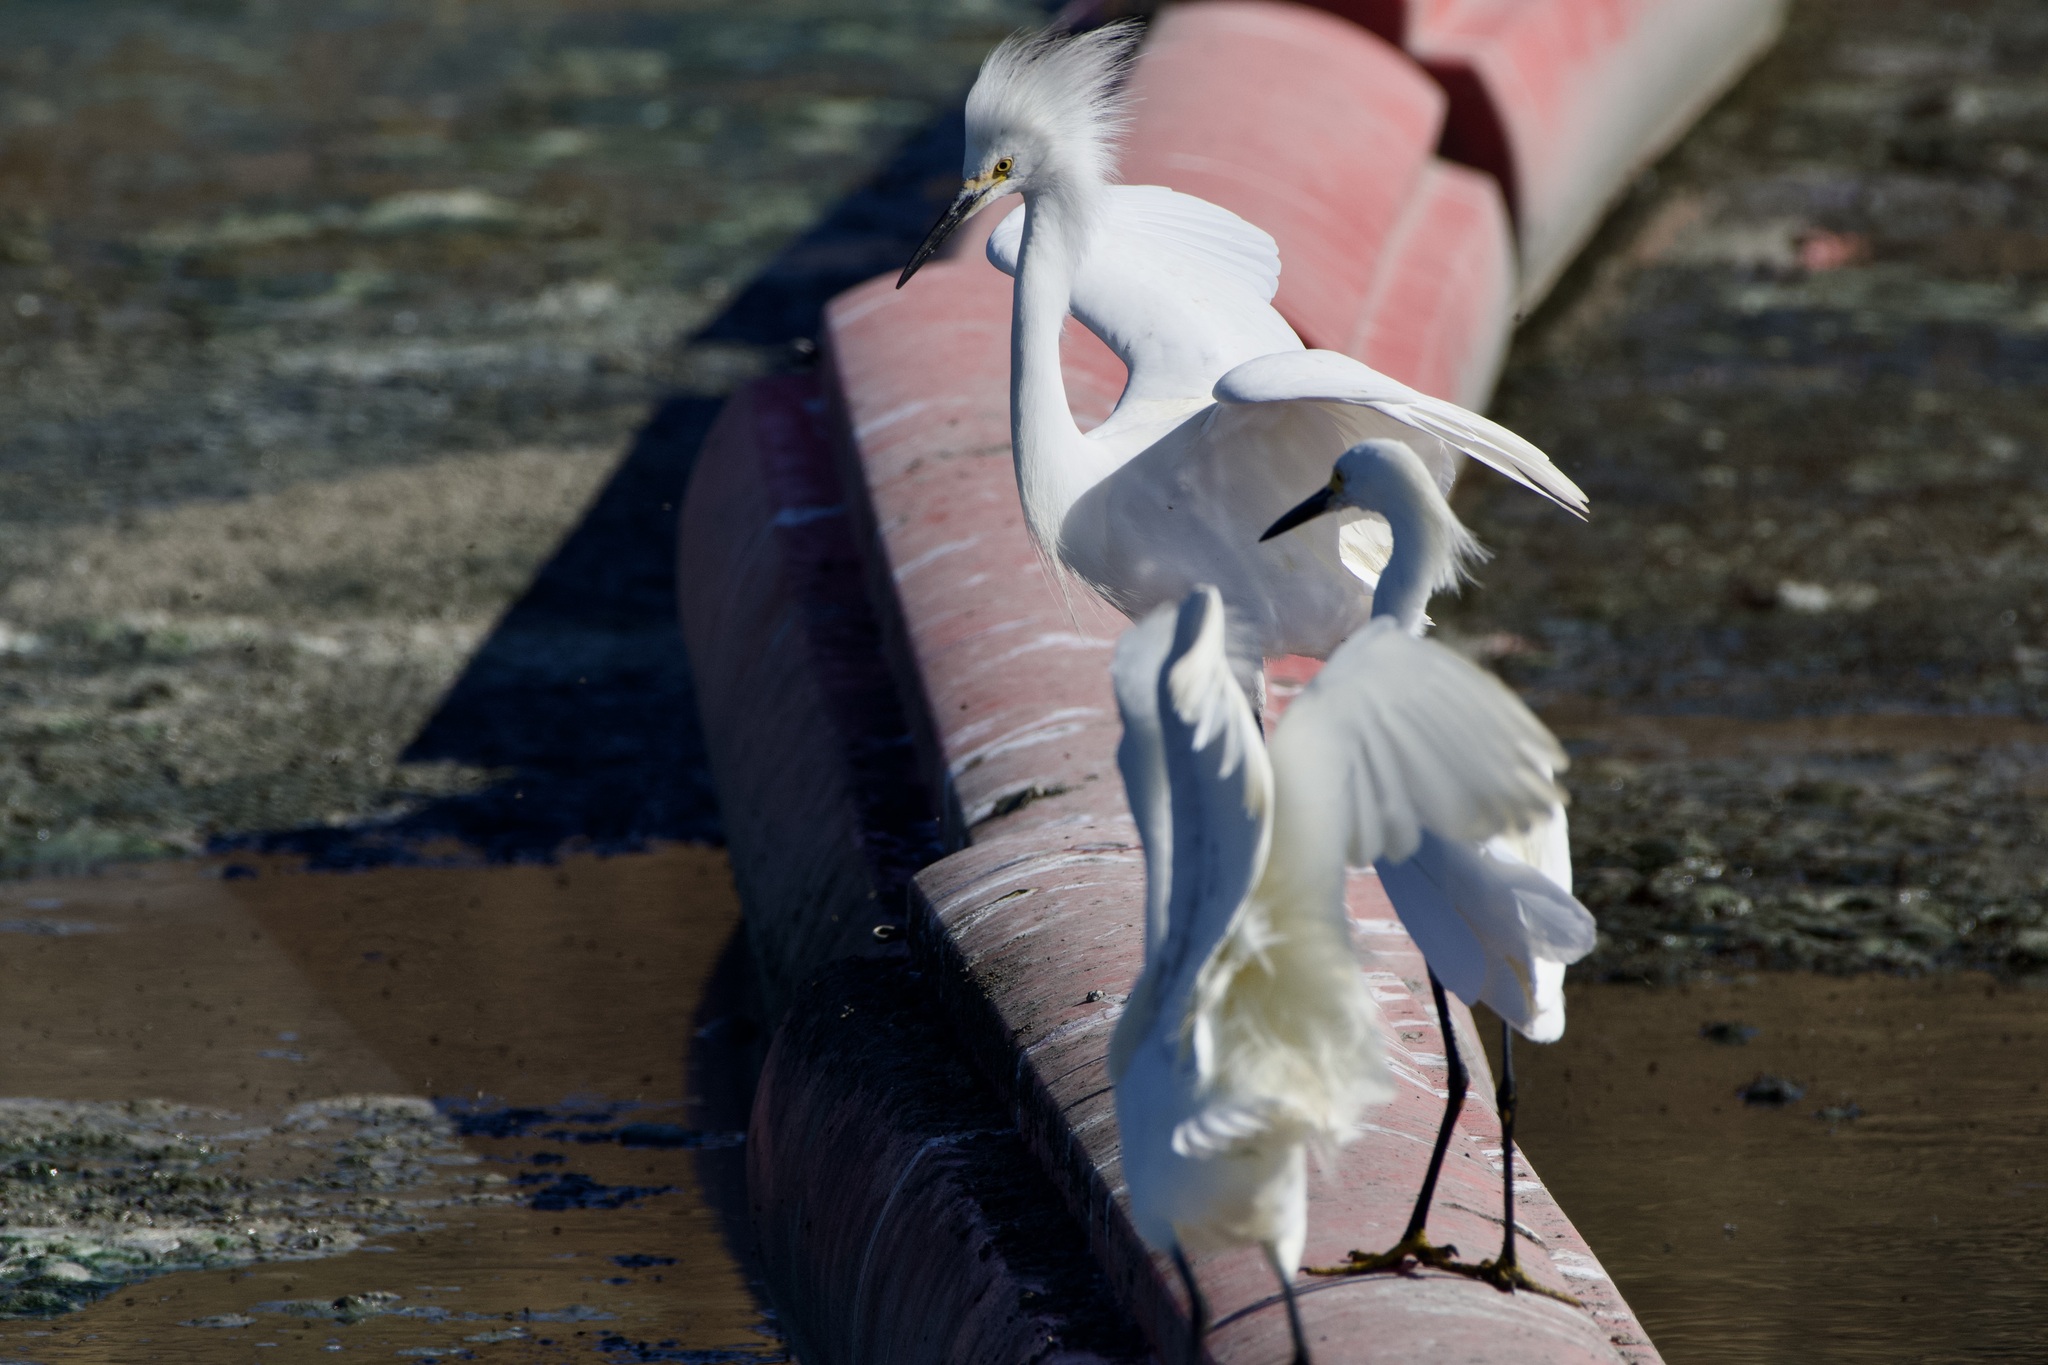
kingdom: Animalia
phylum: Chordata
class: Aves
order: Pelecaniformes
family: Ardeidae
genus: Egretta
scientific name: Egretta thula
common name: Snowy egret
